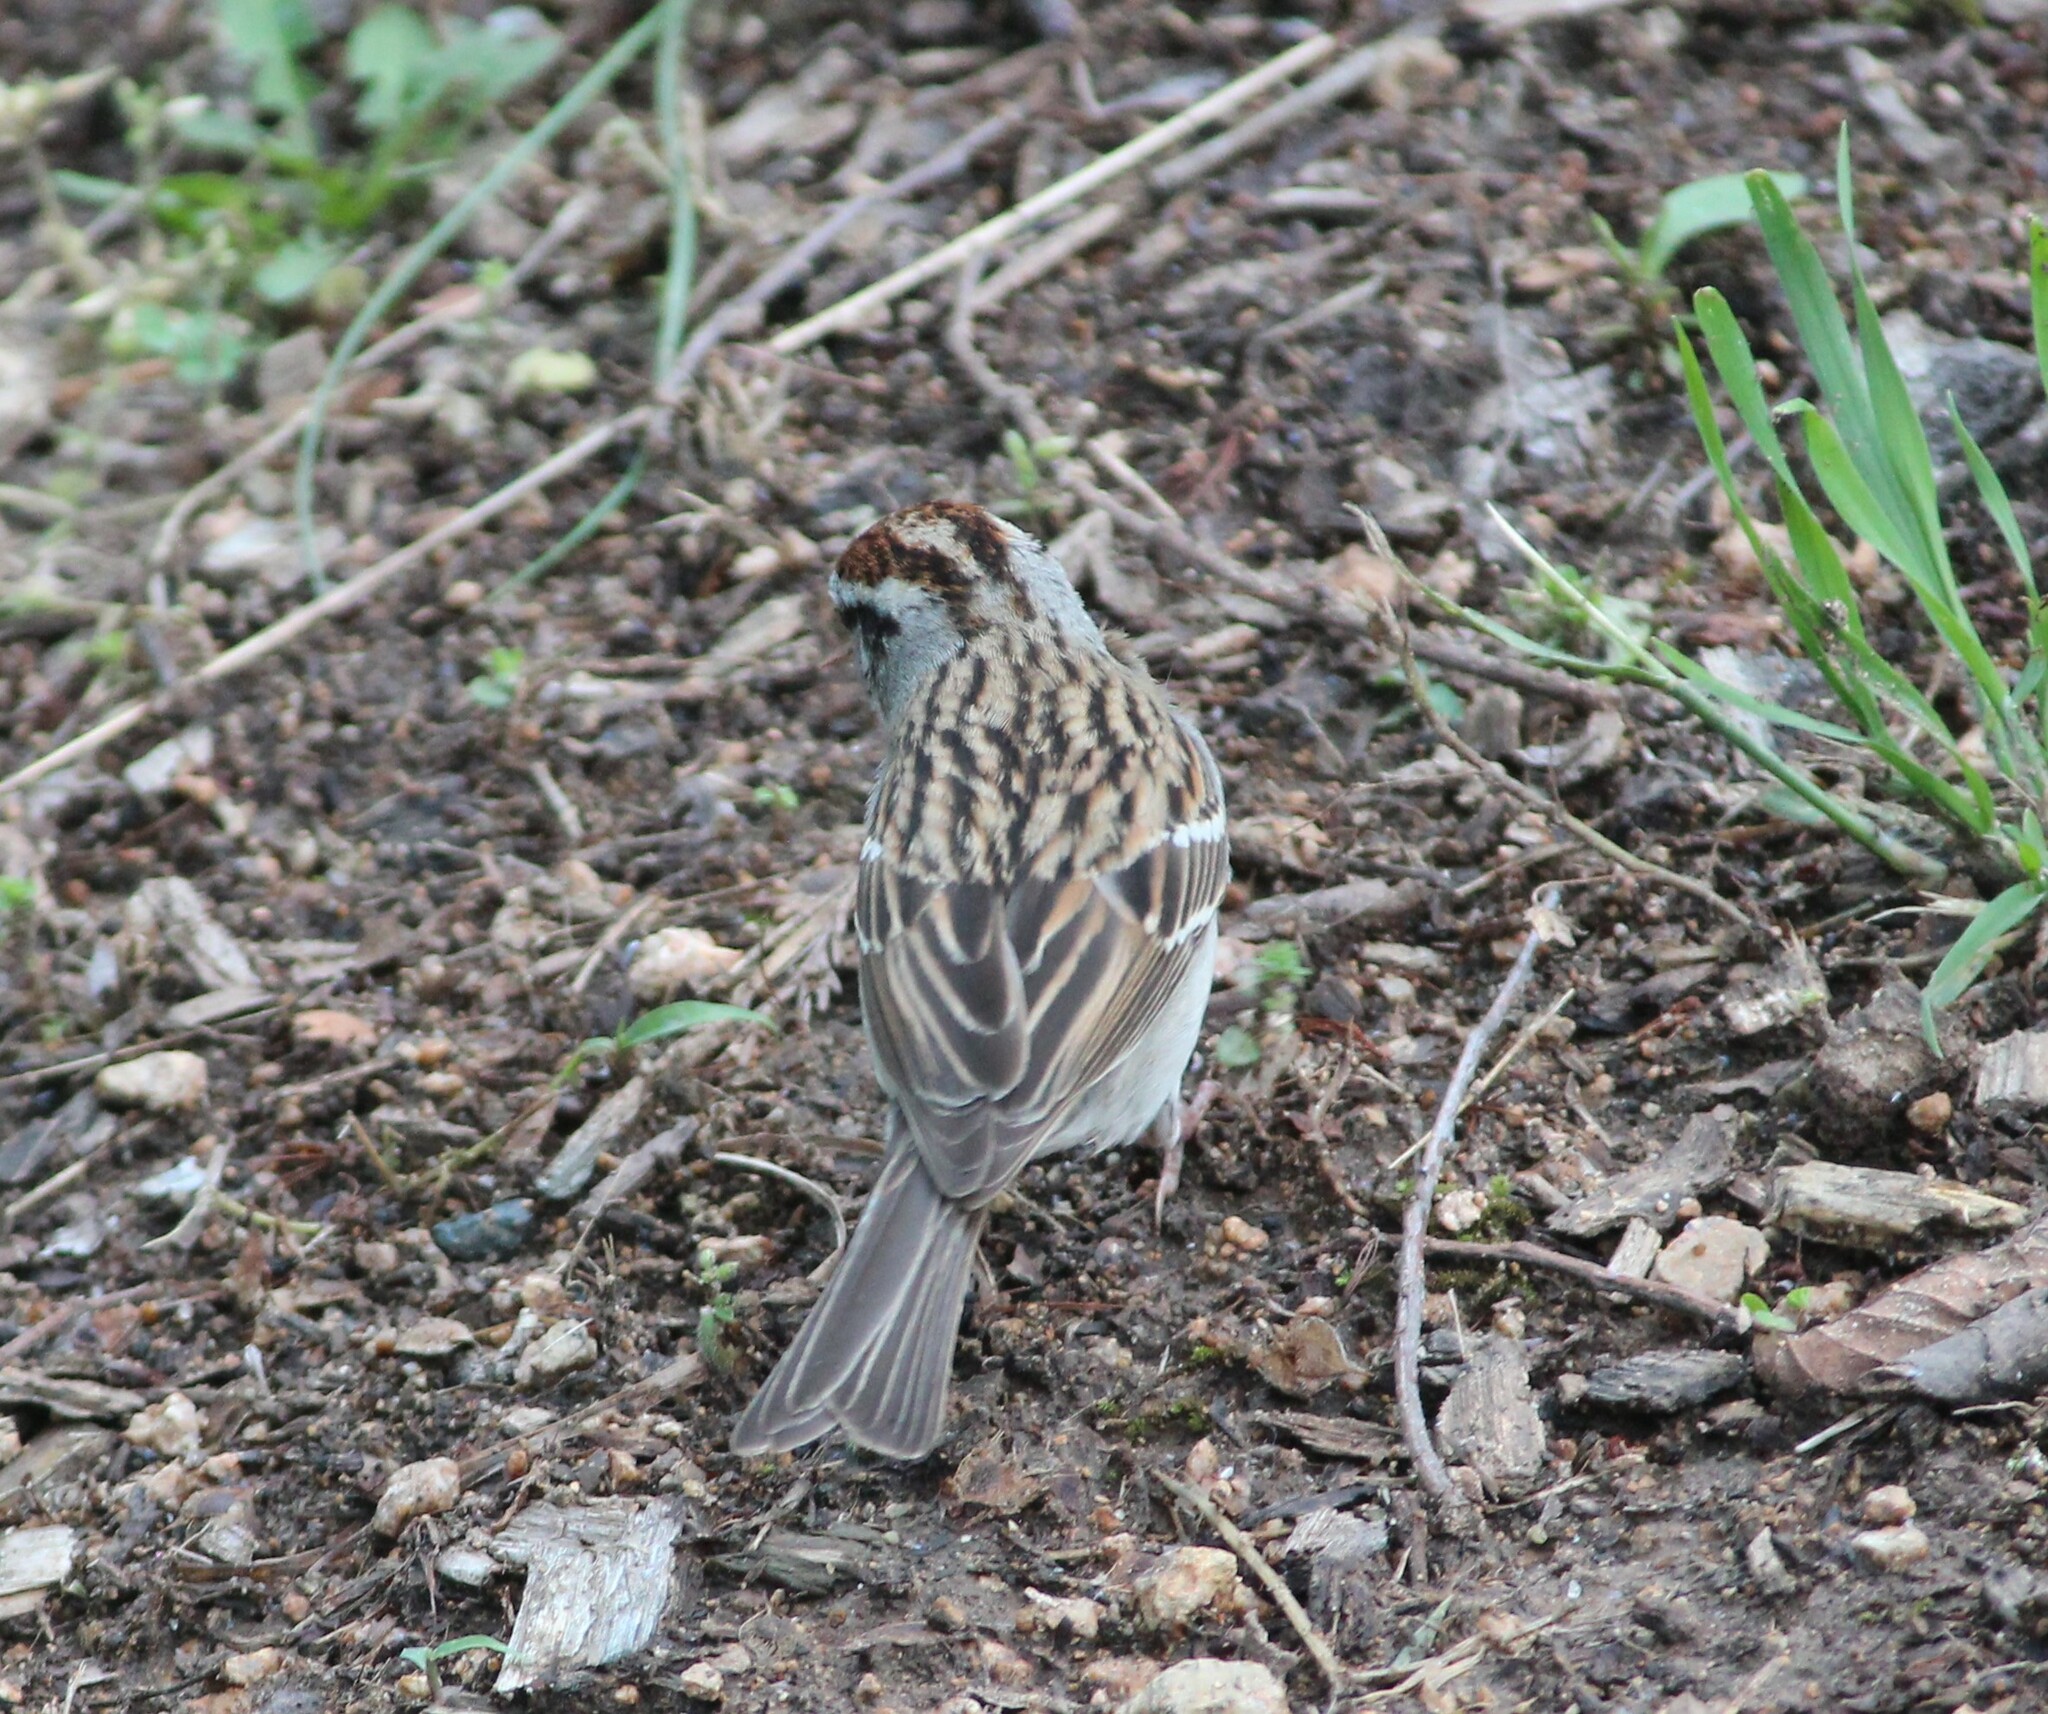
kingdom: Animalia
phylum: Chordata
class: Aves
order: Passeriformes
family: Passerellidae
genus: Spizella
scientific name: Spizella passerina
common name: Chipping sparrow
